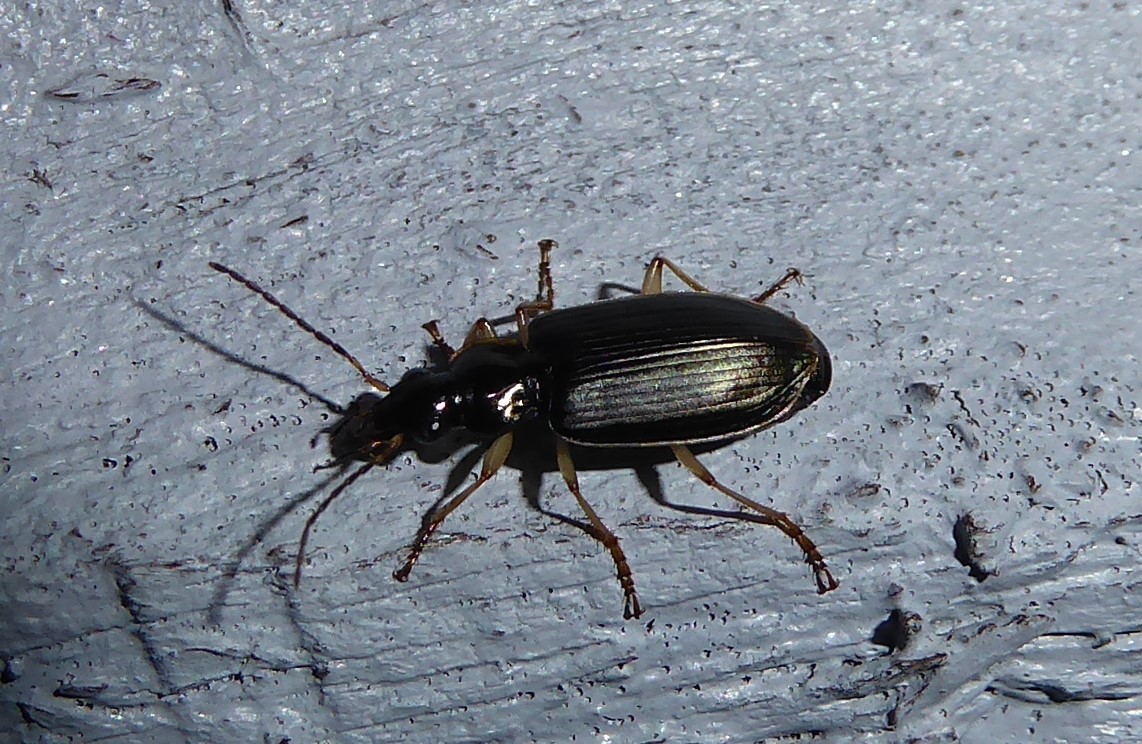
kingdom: Animalia
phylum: Arthropoda
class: Insecta
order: Coleoptera
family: Carabidae
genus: Notagonum
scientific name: Notagonum submetallicum
